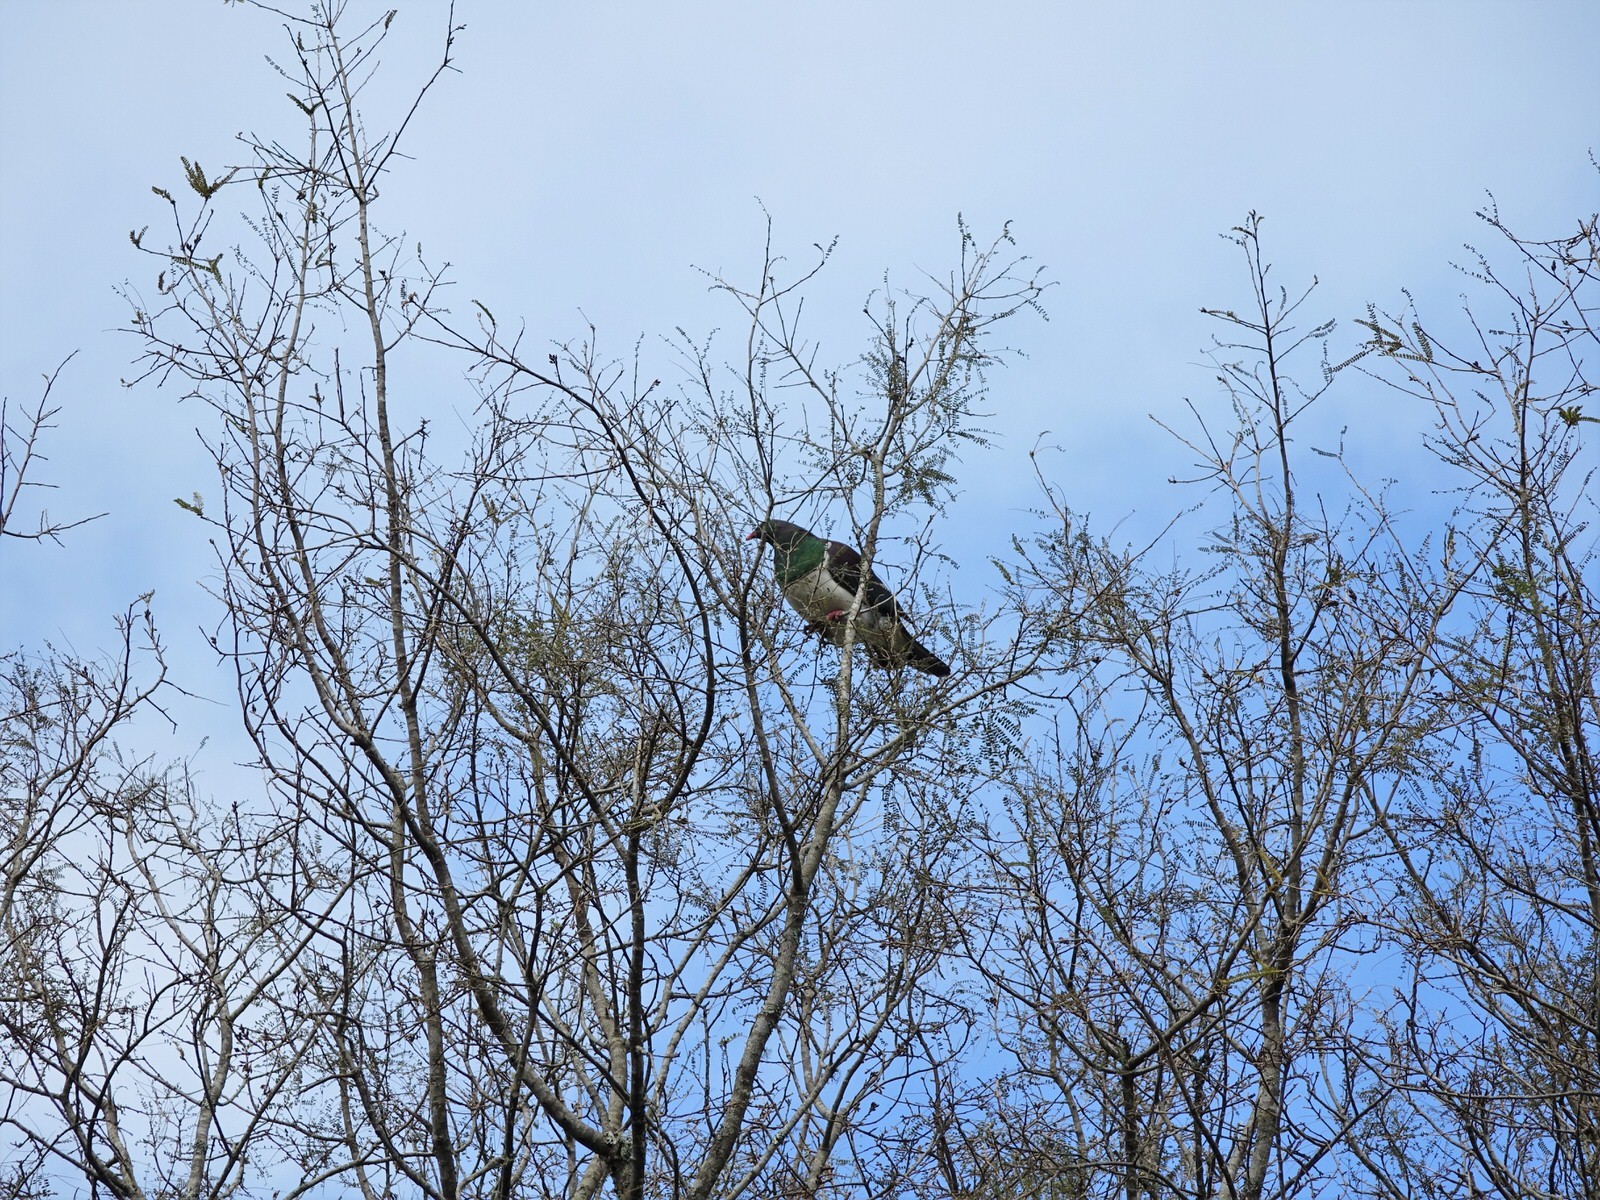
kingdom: Animalia
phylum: Chordata
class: Aves
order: Columbiformes
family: Columbidae
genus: Hemiphaga
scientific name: Hemiphaga novaeseelandiae
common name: New zealand pigeon
